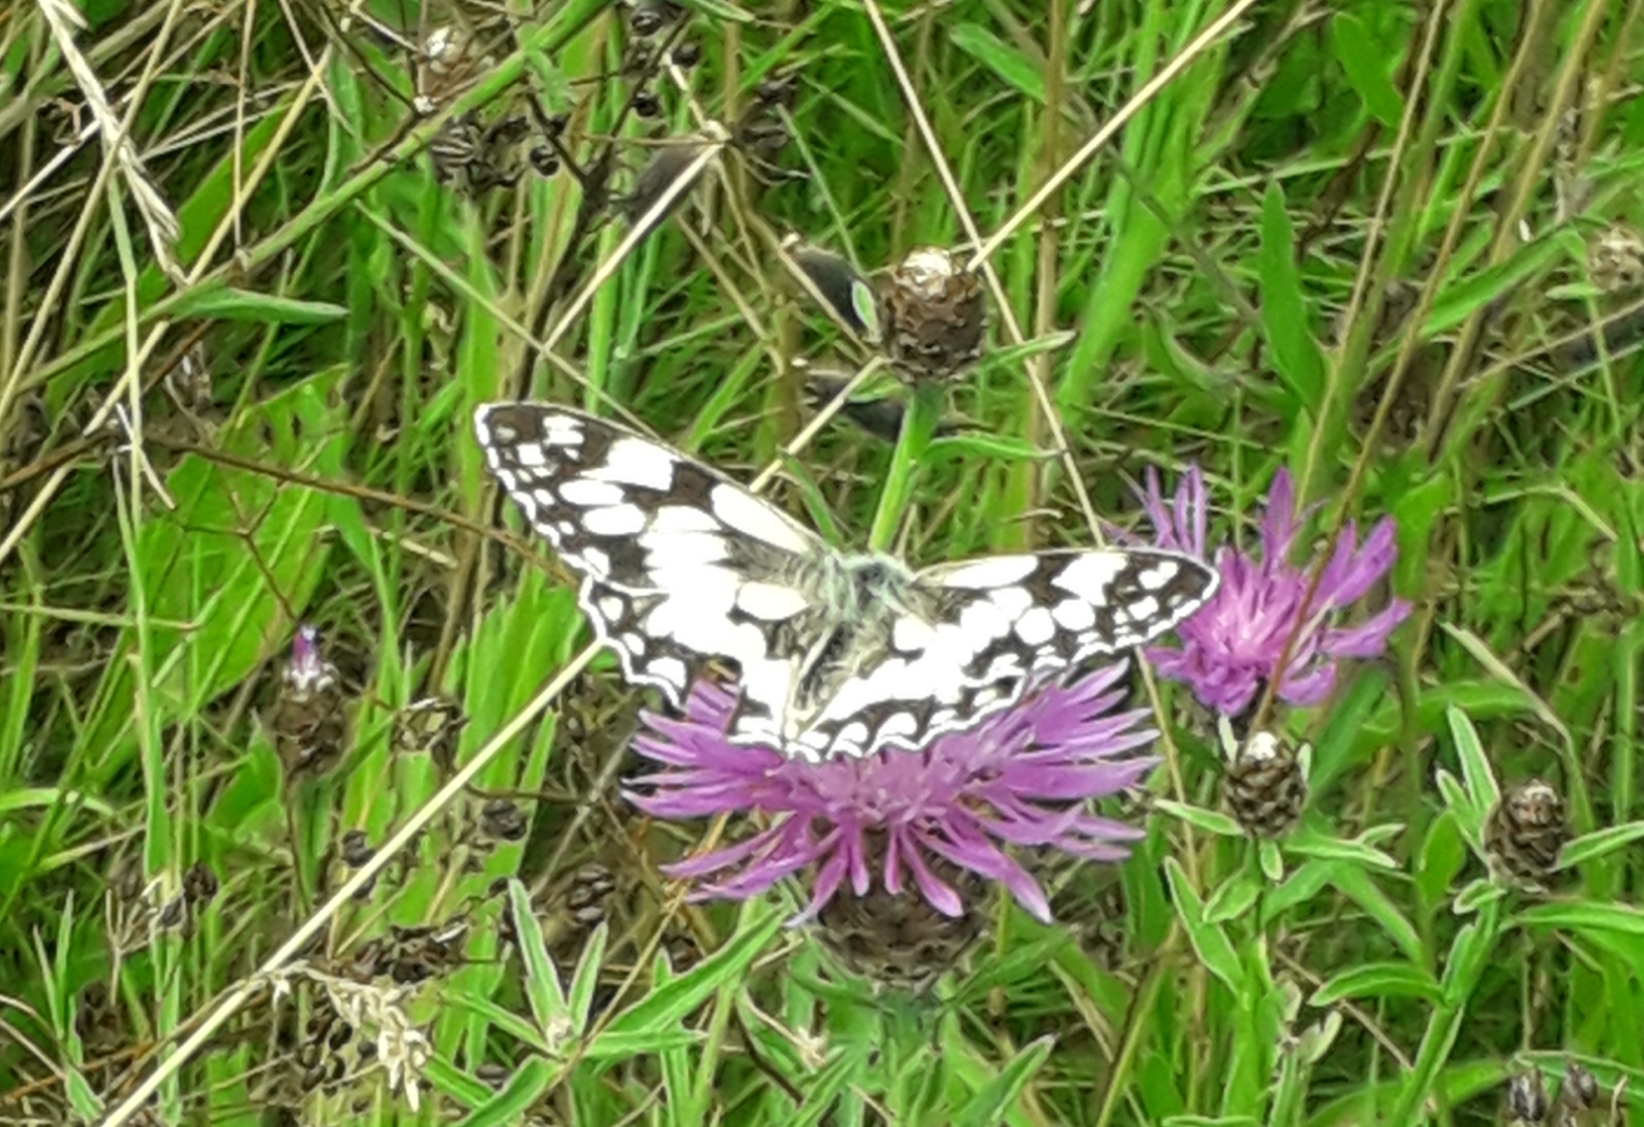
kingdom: Animalia
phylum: Arthropoda
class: Insecta
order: Lepidoptera
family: Nymphalidae
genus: Melanargia
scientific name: Melanargia galathea
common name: Marbled white
